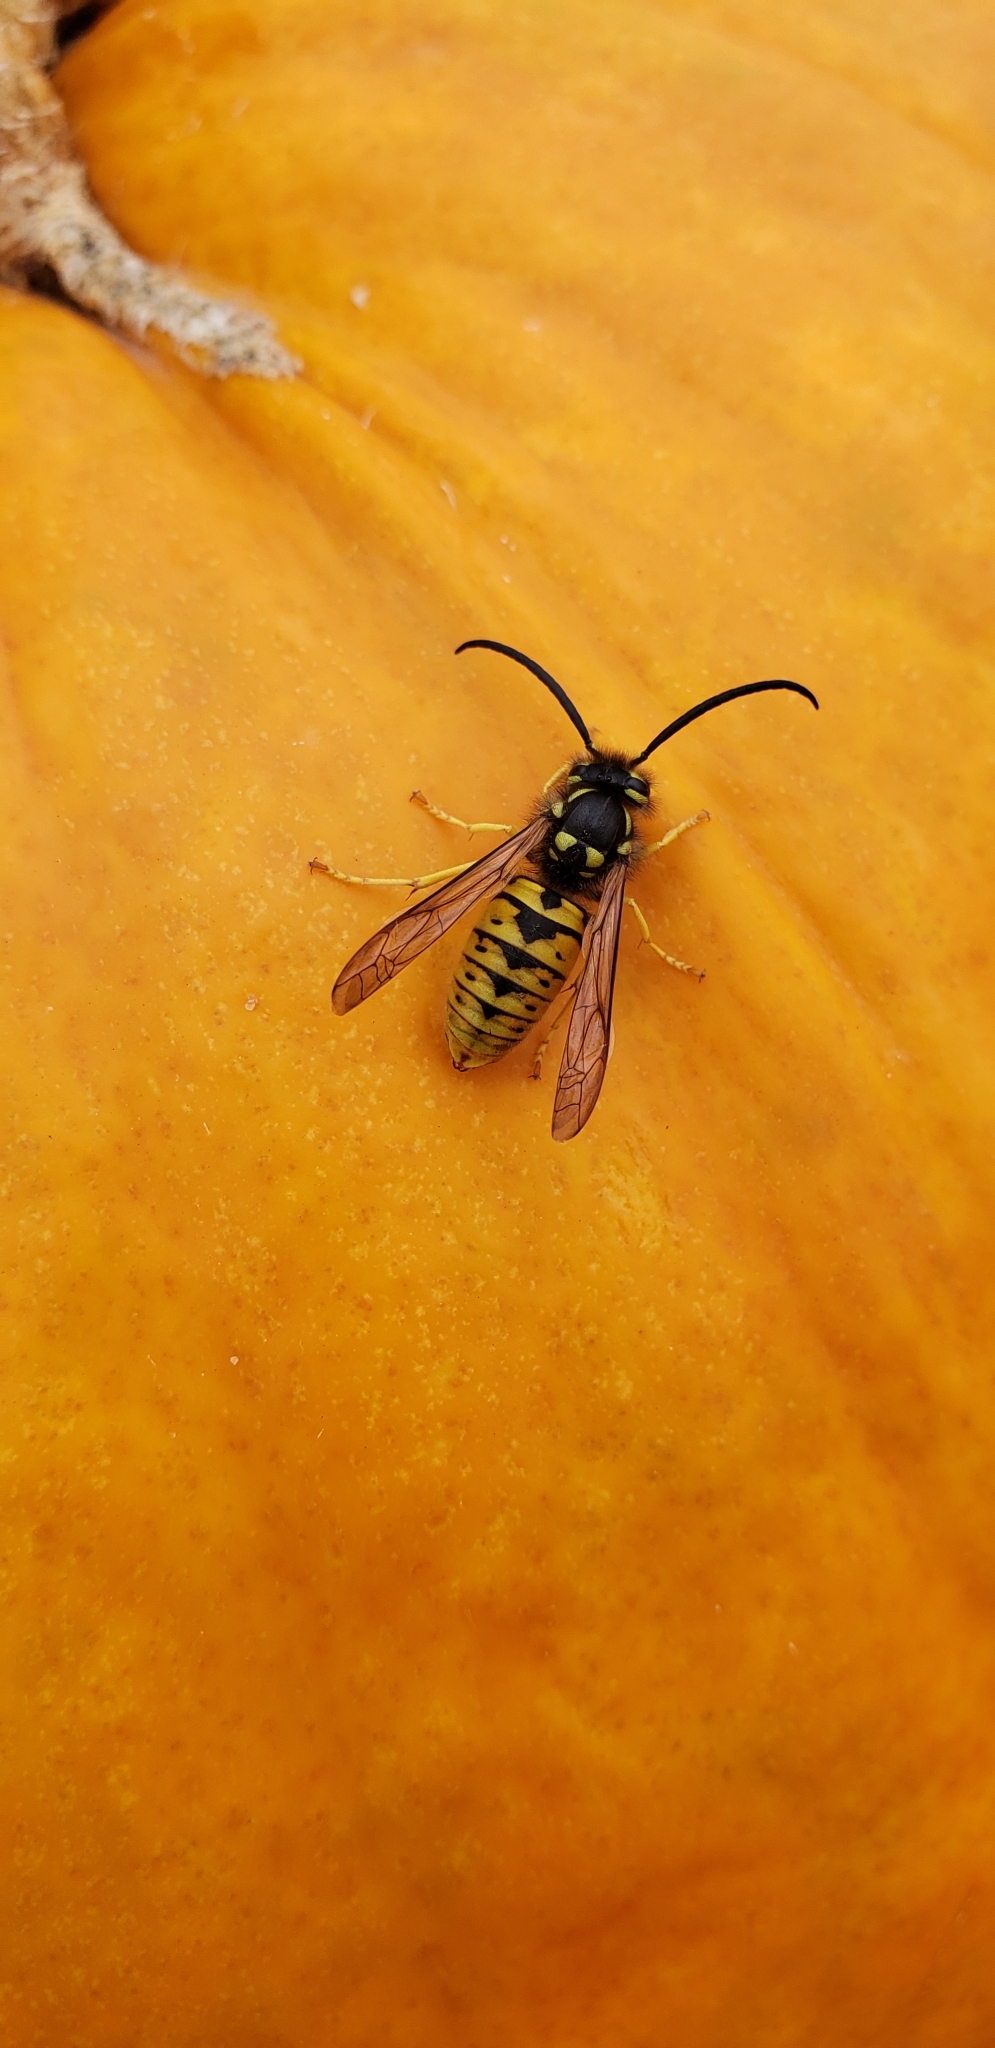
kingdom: Animalia
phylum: Arthropoda
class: Insecta
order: Hymenoptera
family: Vespidae
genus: Vespula
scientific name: Vespula germanica
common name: German wasp
